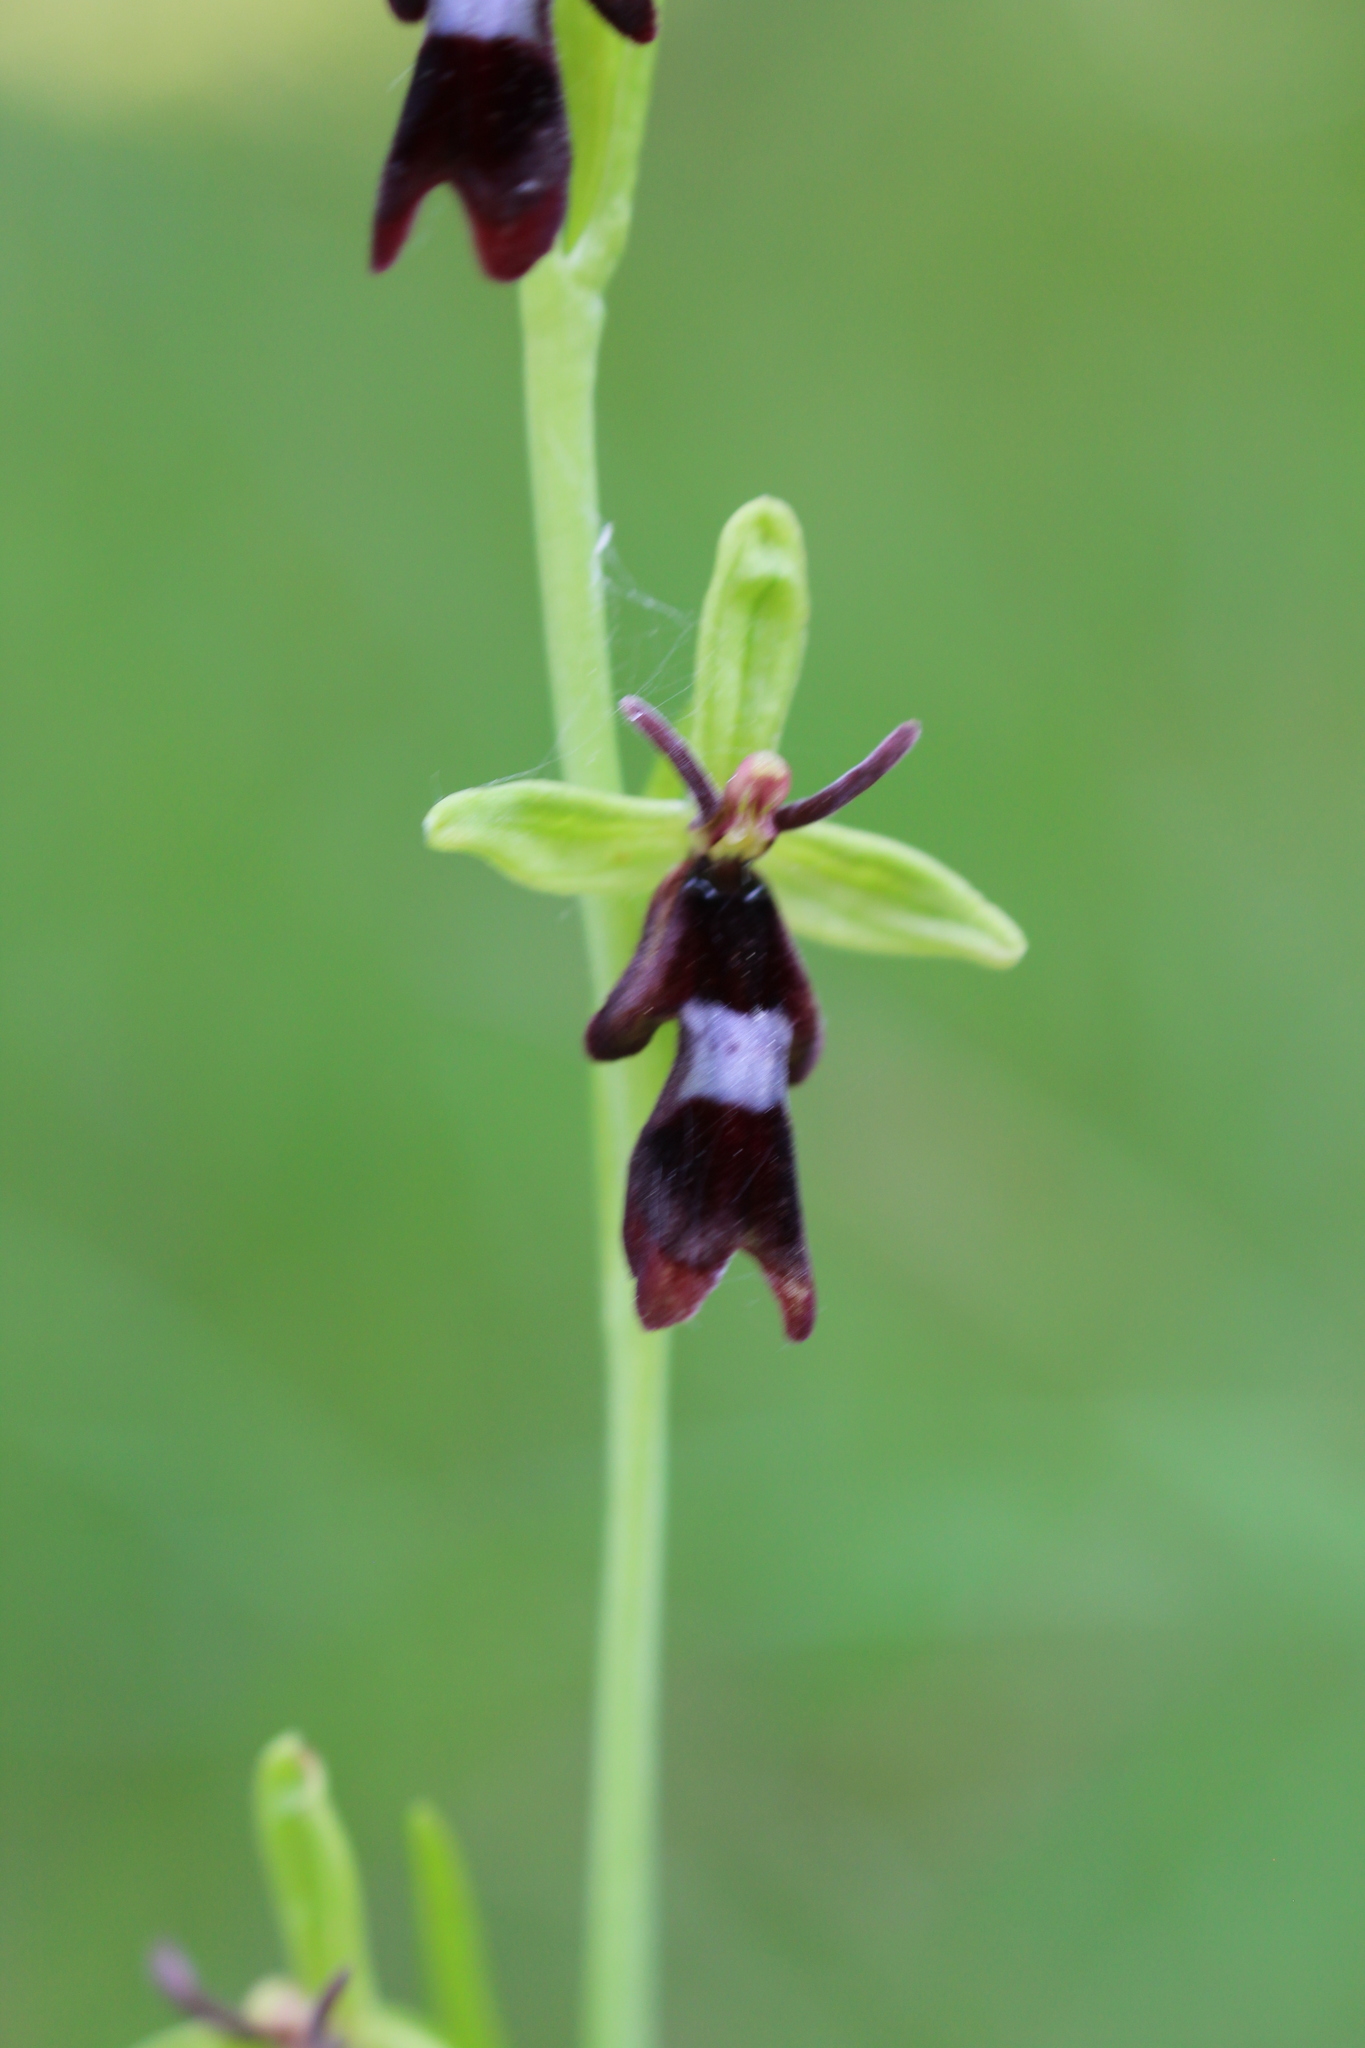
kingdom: Plantae
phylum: Tracheophyta
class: Liliopsida
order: Asparagales
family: Orchidaceae
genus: Ophrys
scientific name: Ophrys insectifera
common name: Fly orchid
